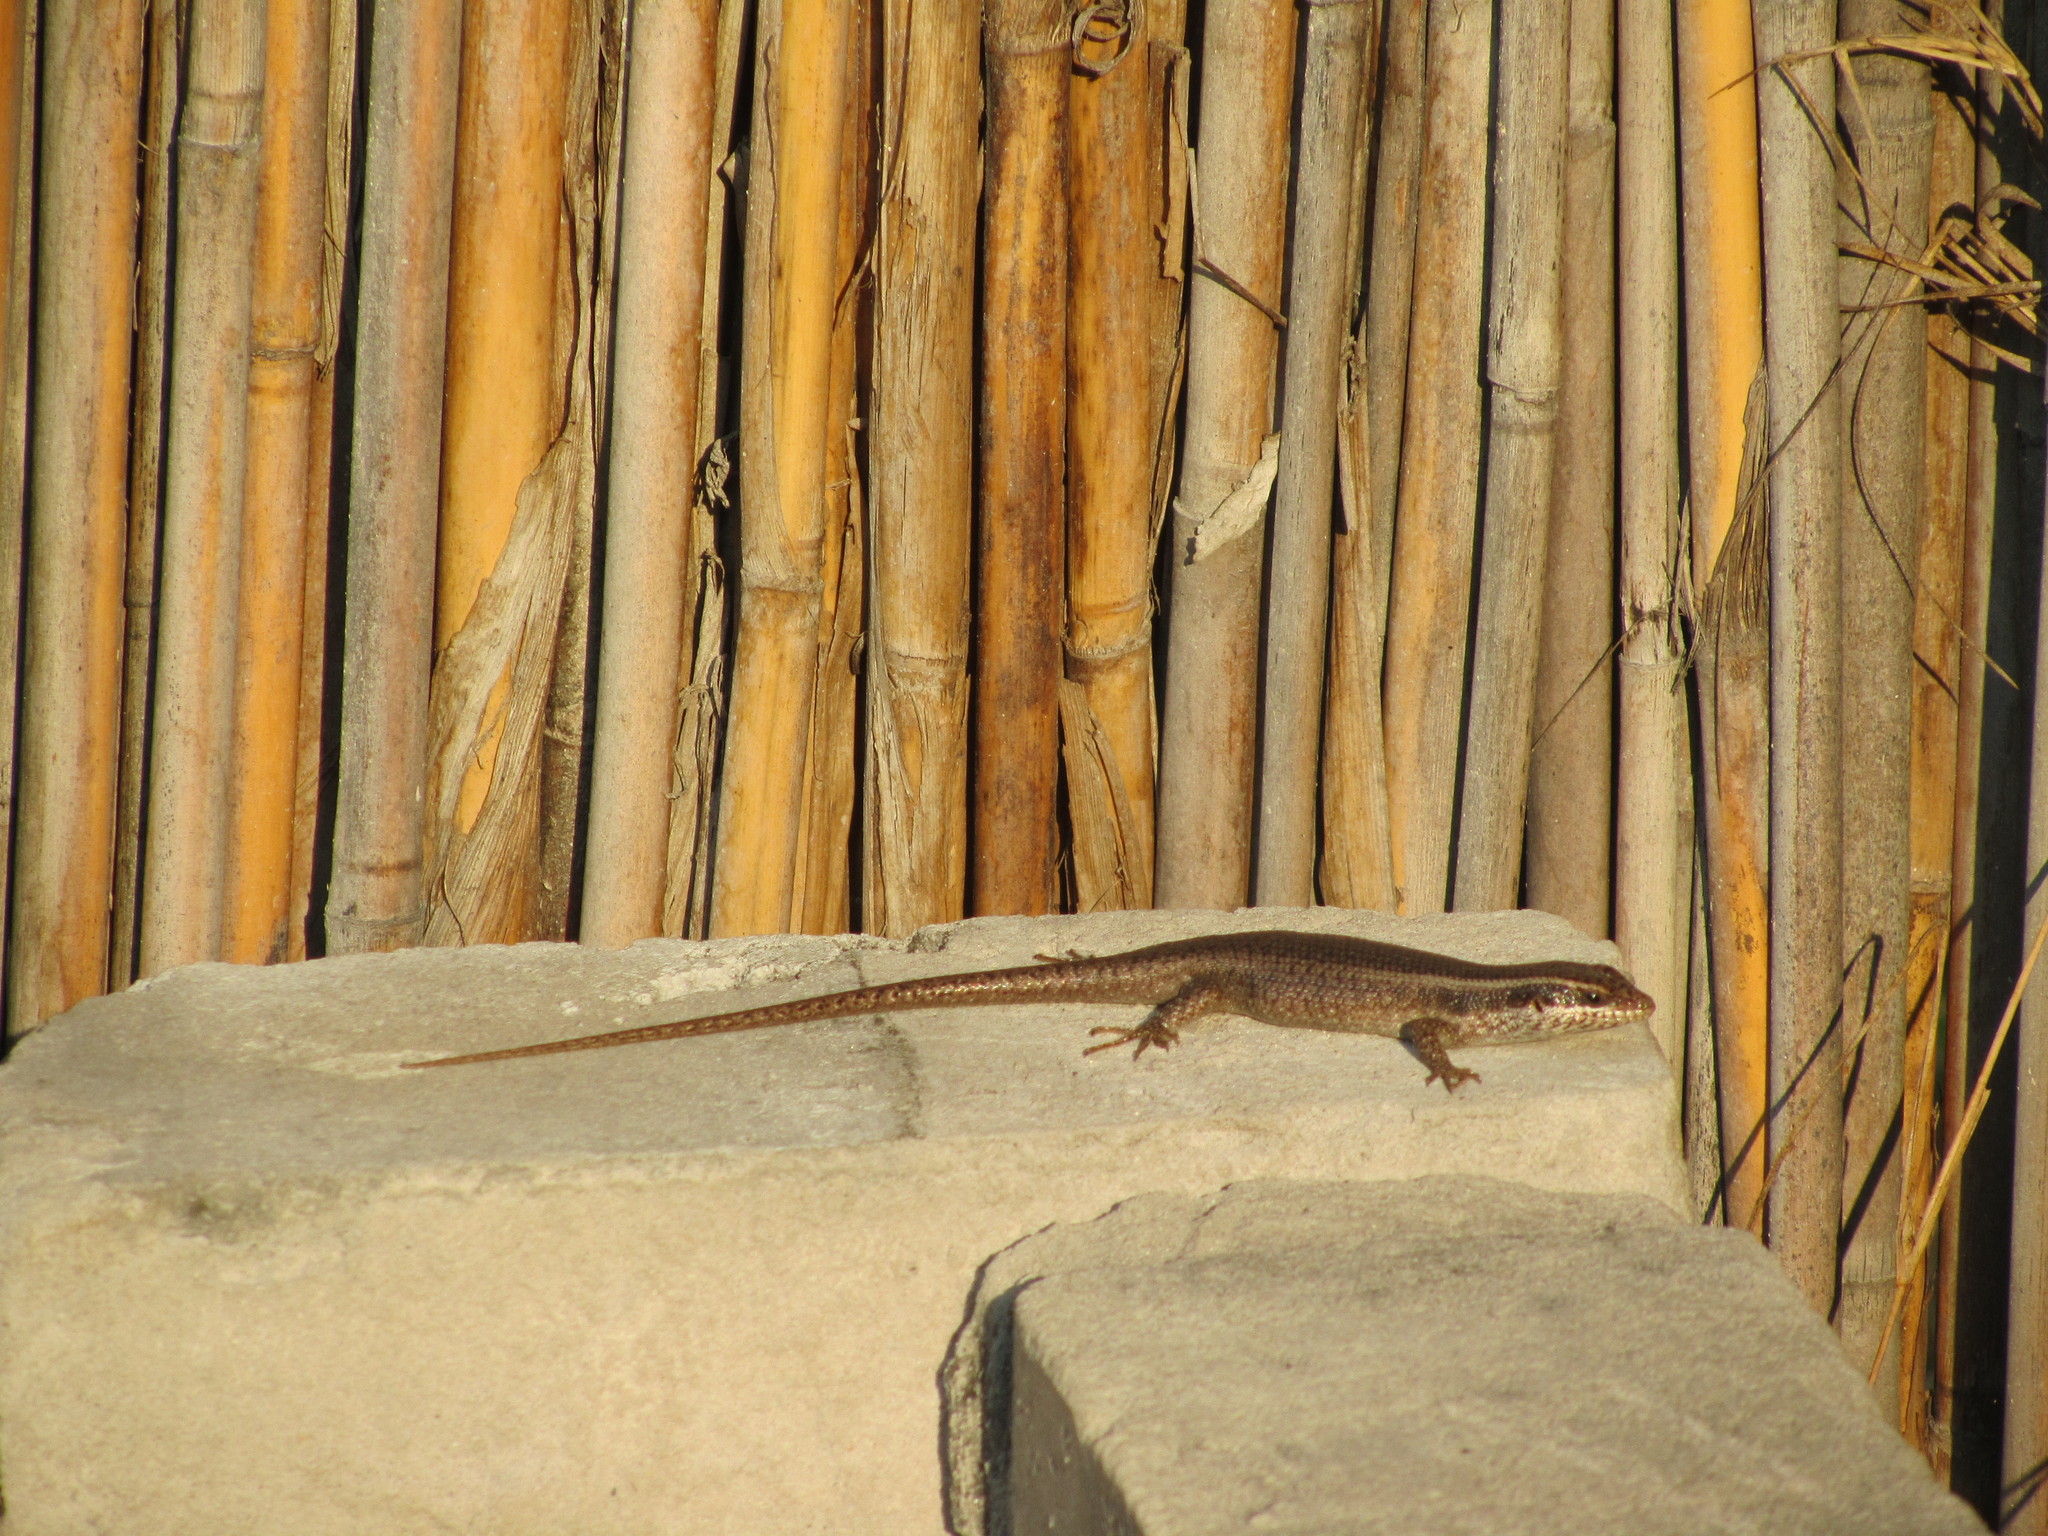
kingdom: Animalia
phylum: Chordata
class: Squamata
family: Scincidae
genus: Trachylepis
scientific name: Trachylepis wahlbergii
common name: Wahlberg’s striped skink
